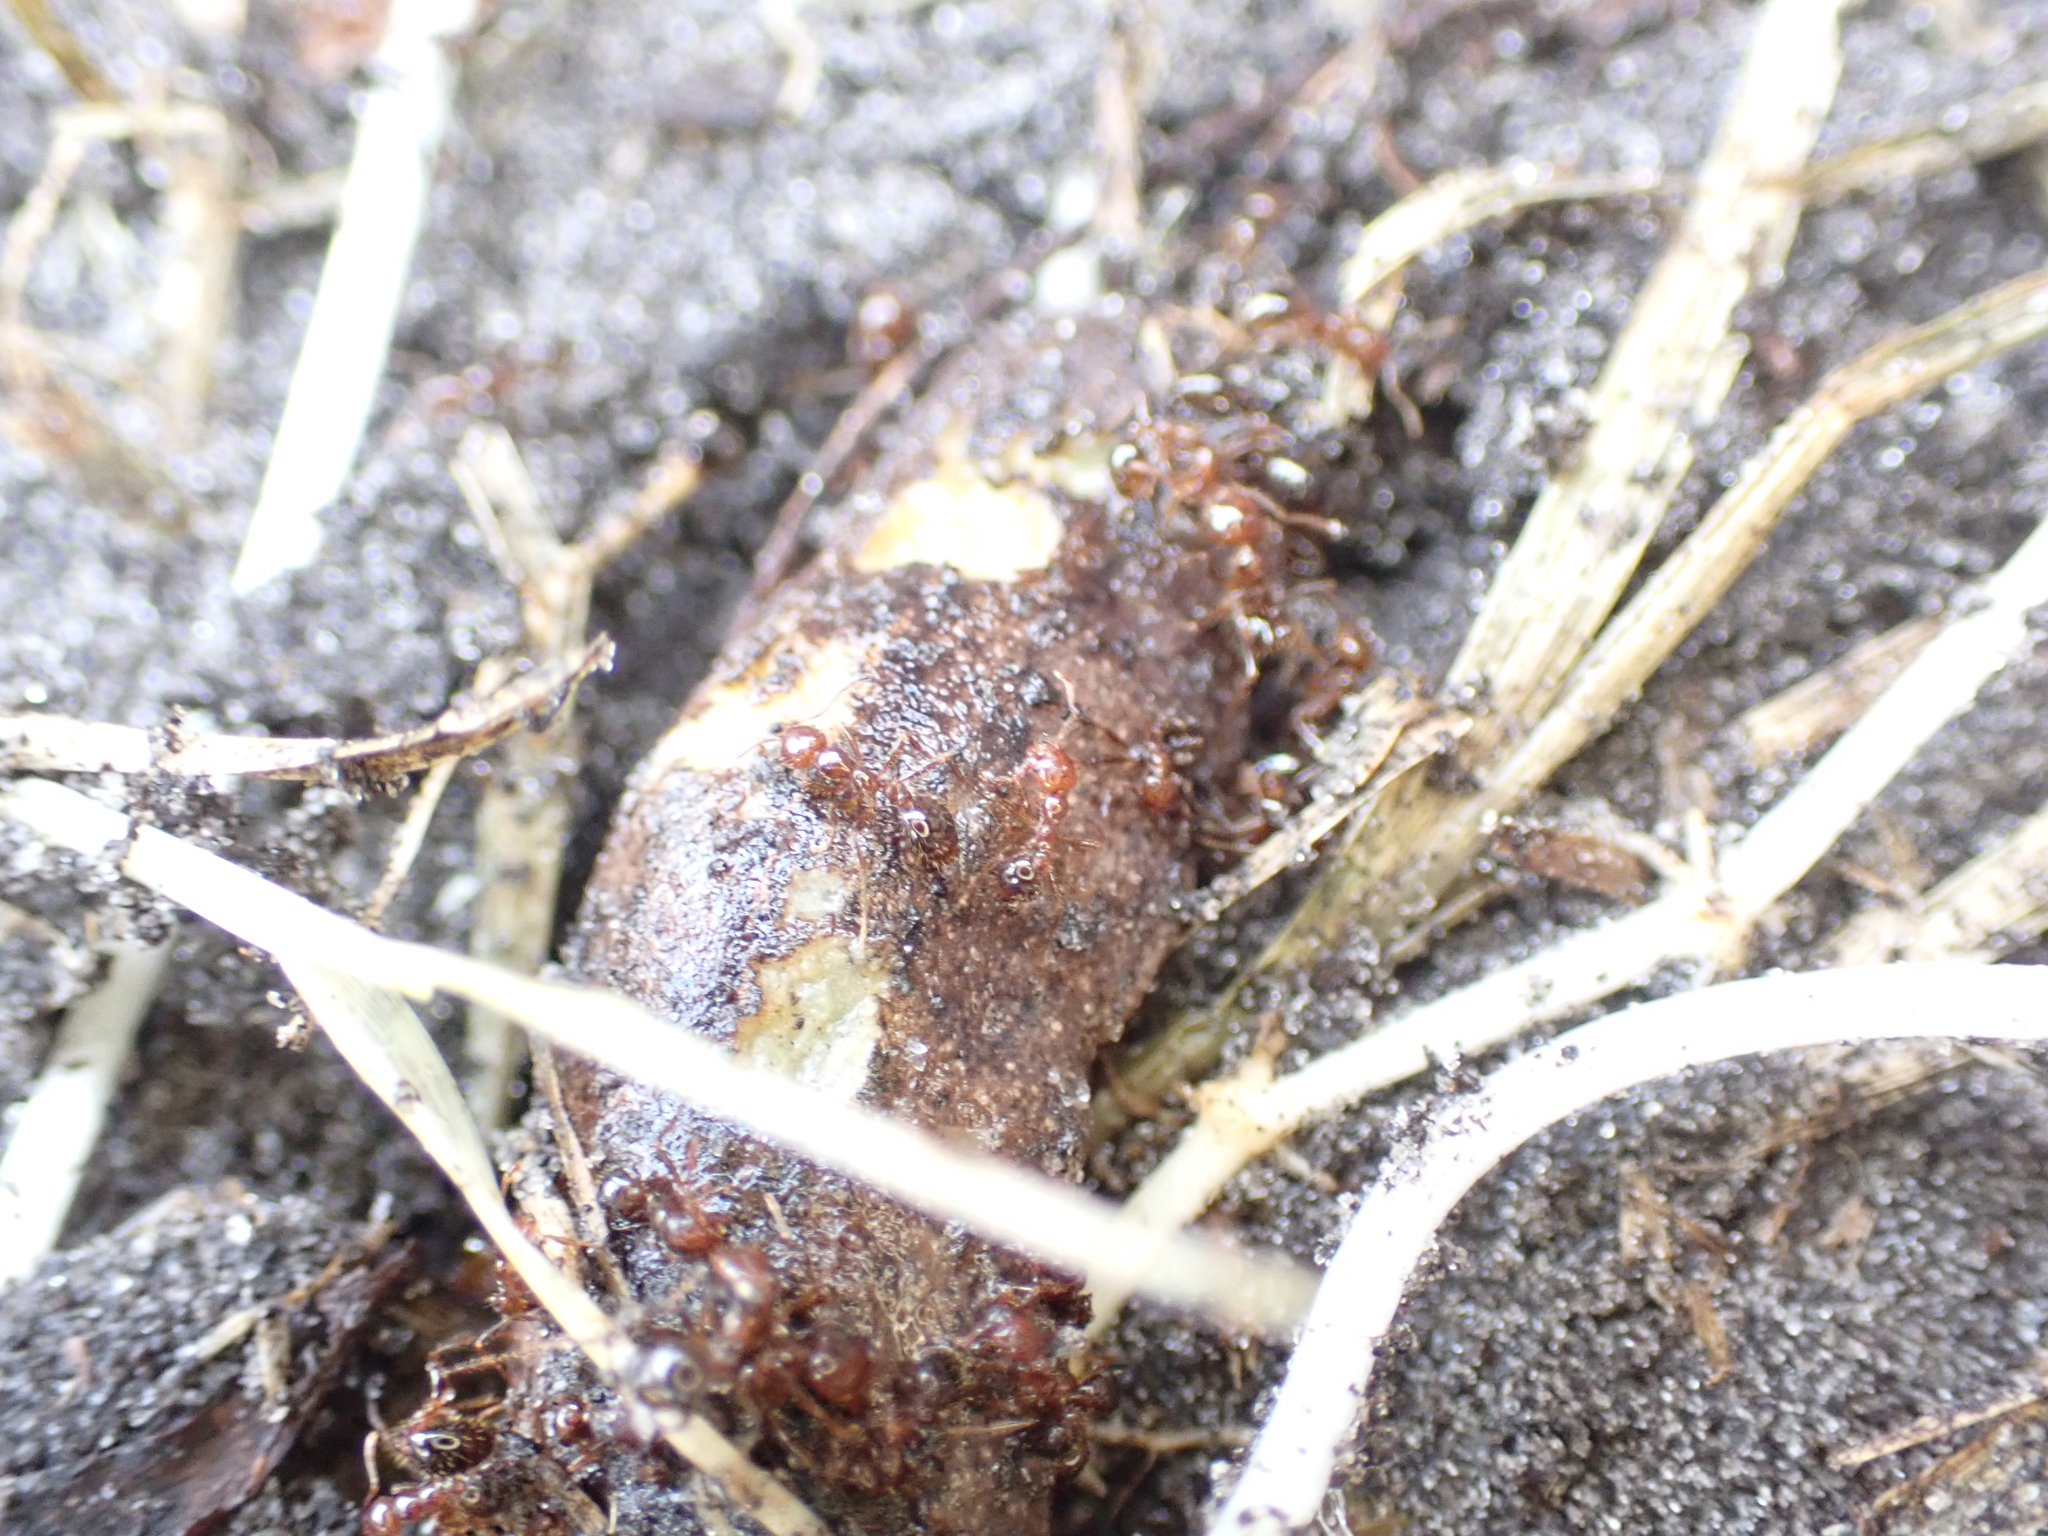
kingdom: Animalia
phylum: Arthropoda
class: Insecta
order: Hymenoptera
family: Formicidae
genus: Solenopsis
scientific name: Solenopsis invicta
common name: Red imported fire ant
